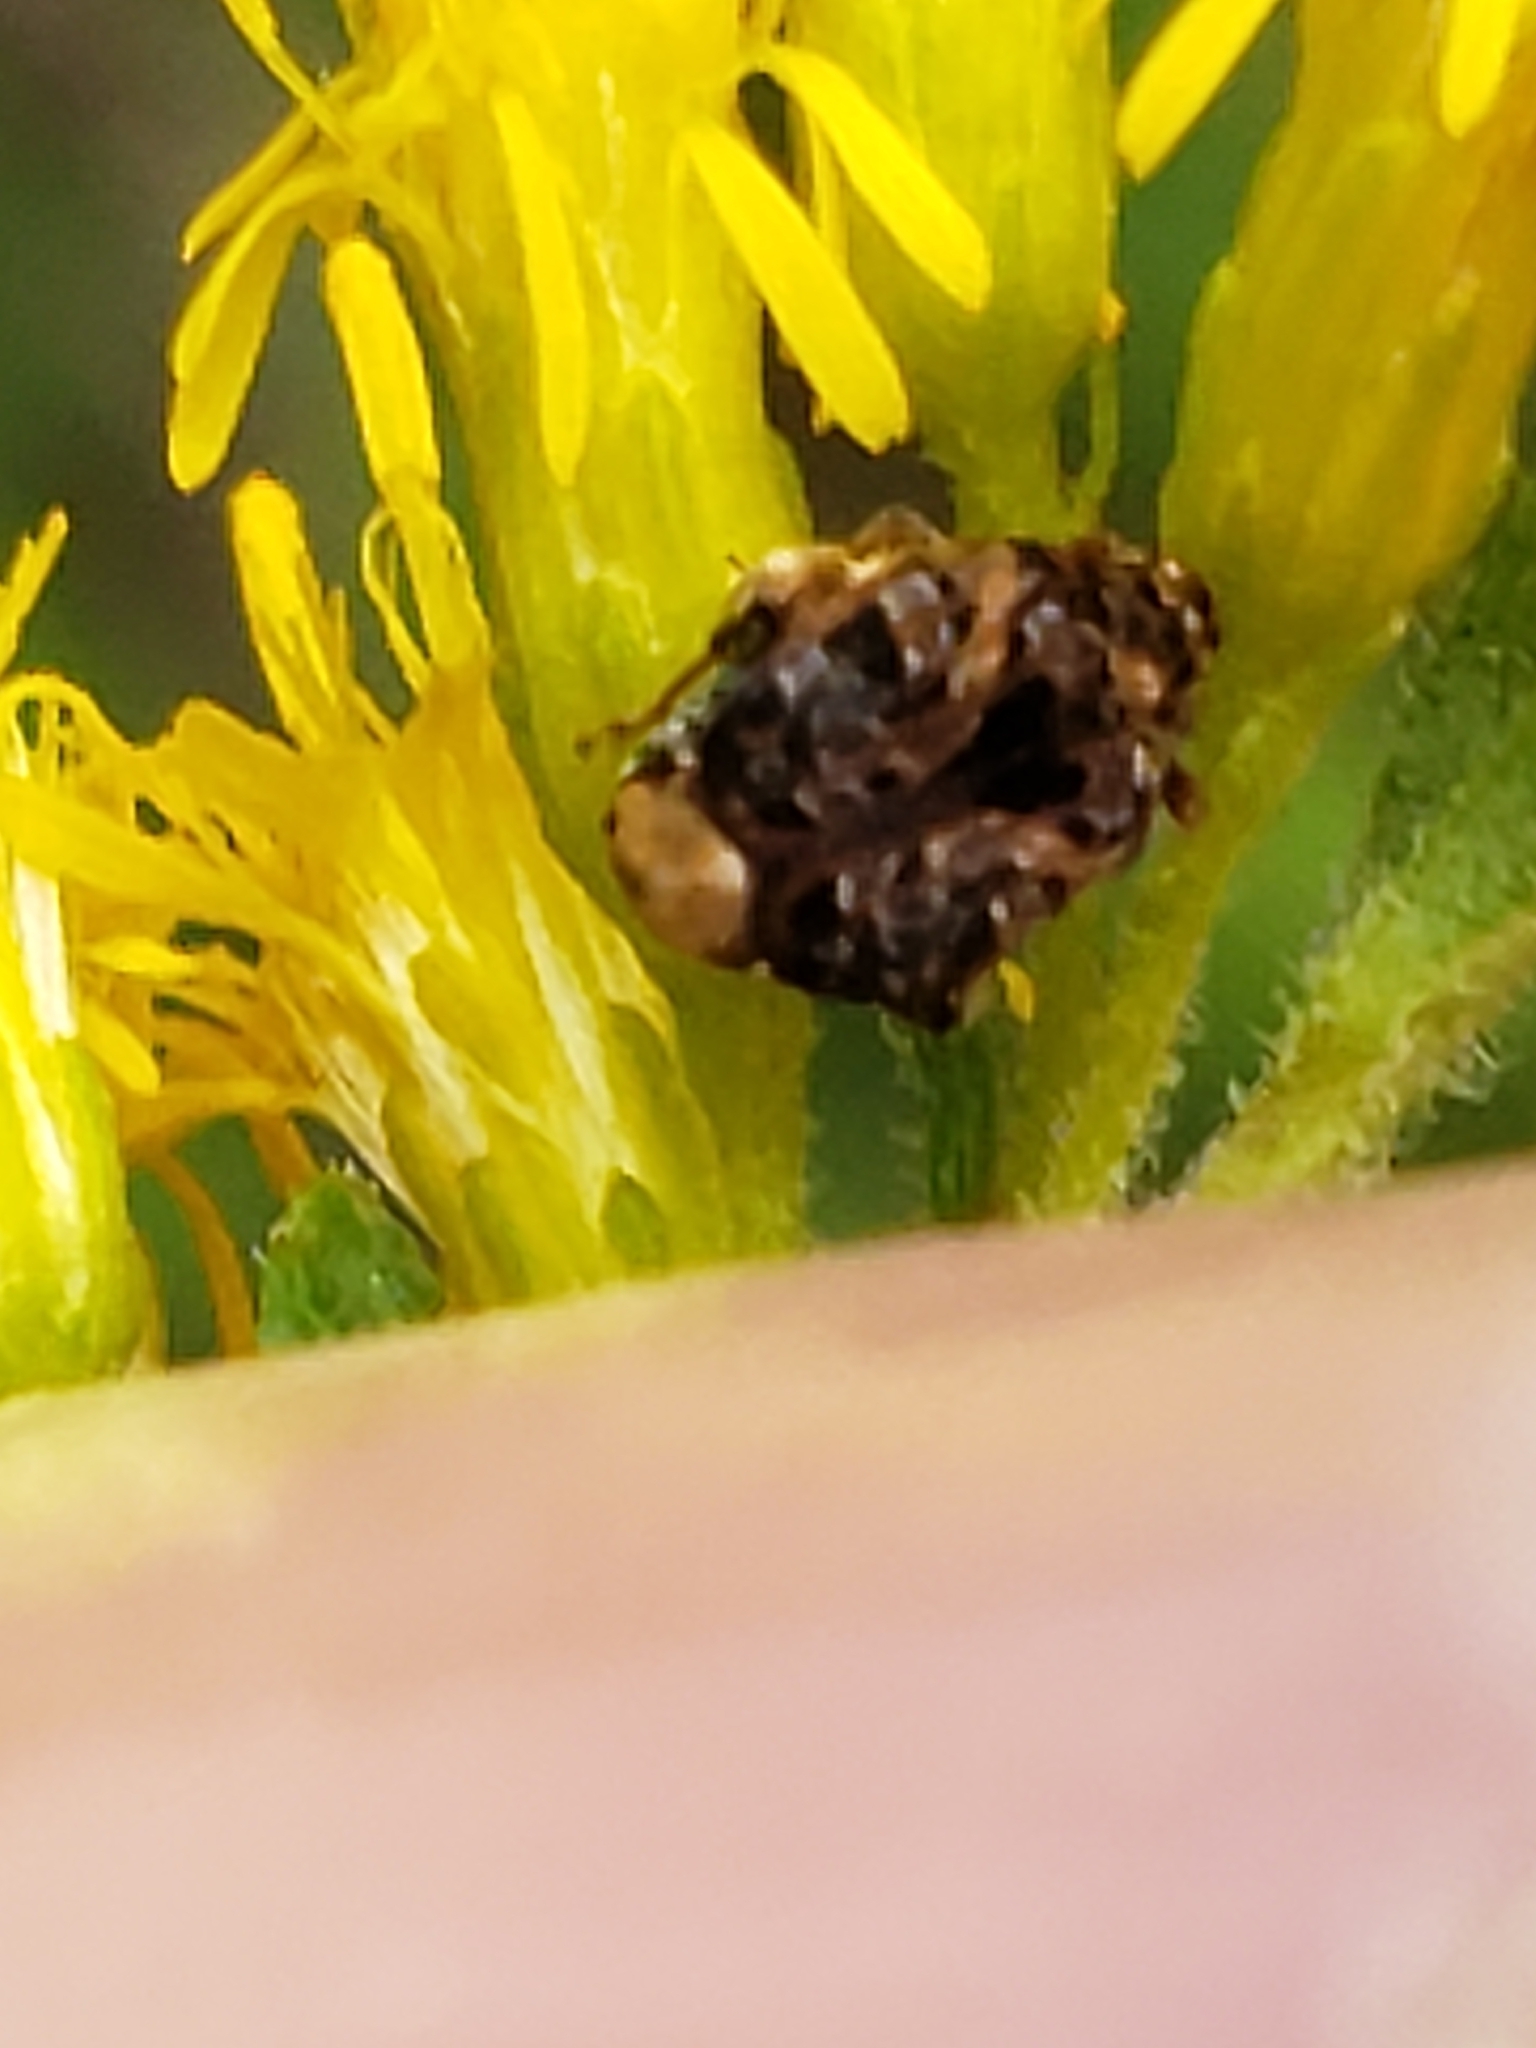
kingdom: Animalia
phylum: Arthropoda
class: Insecta
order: Coleoptera
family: Chrysomelidae
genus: Gibbobruchus
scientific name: Gibbobruchus mimus
